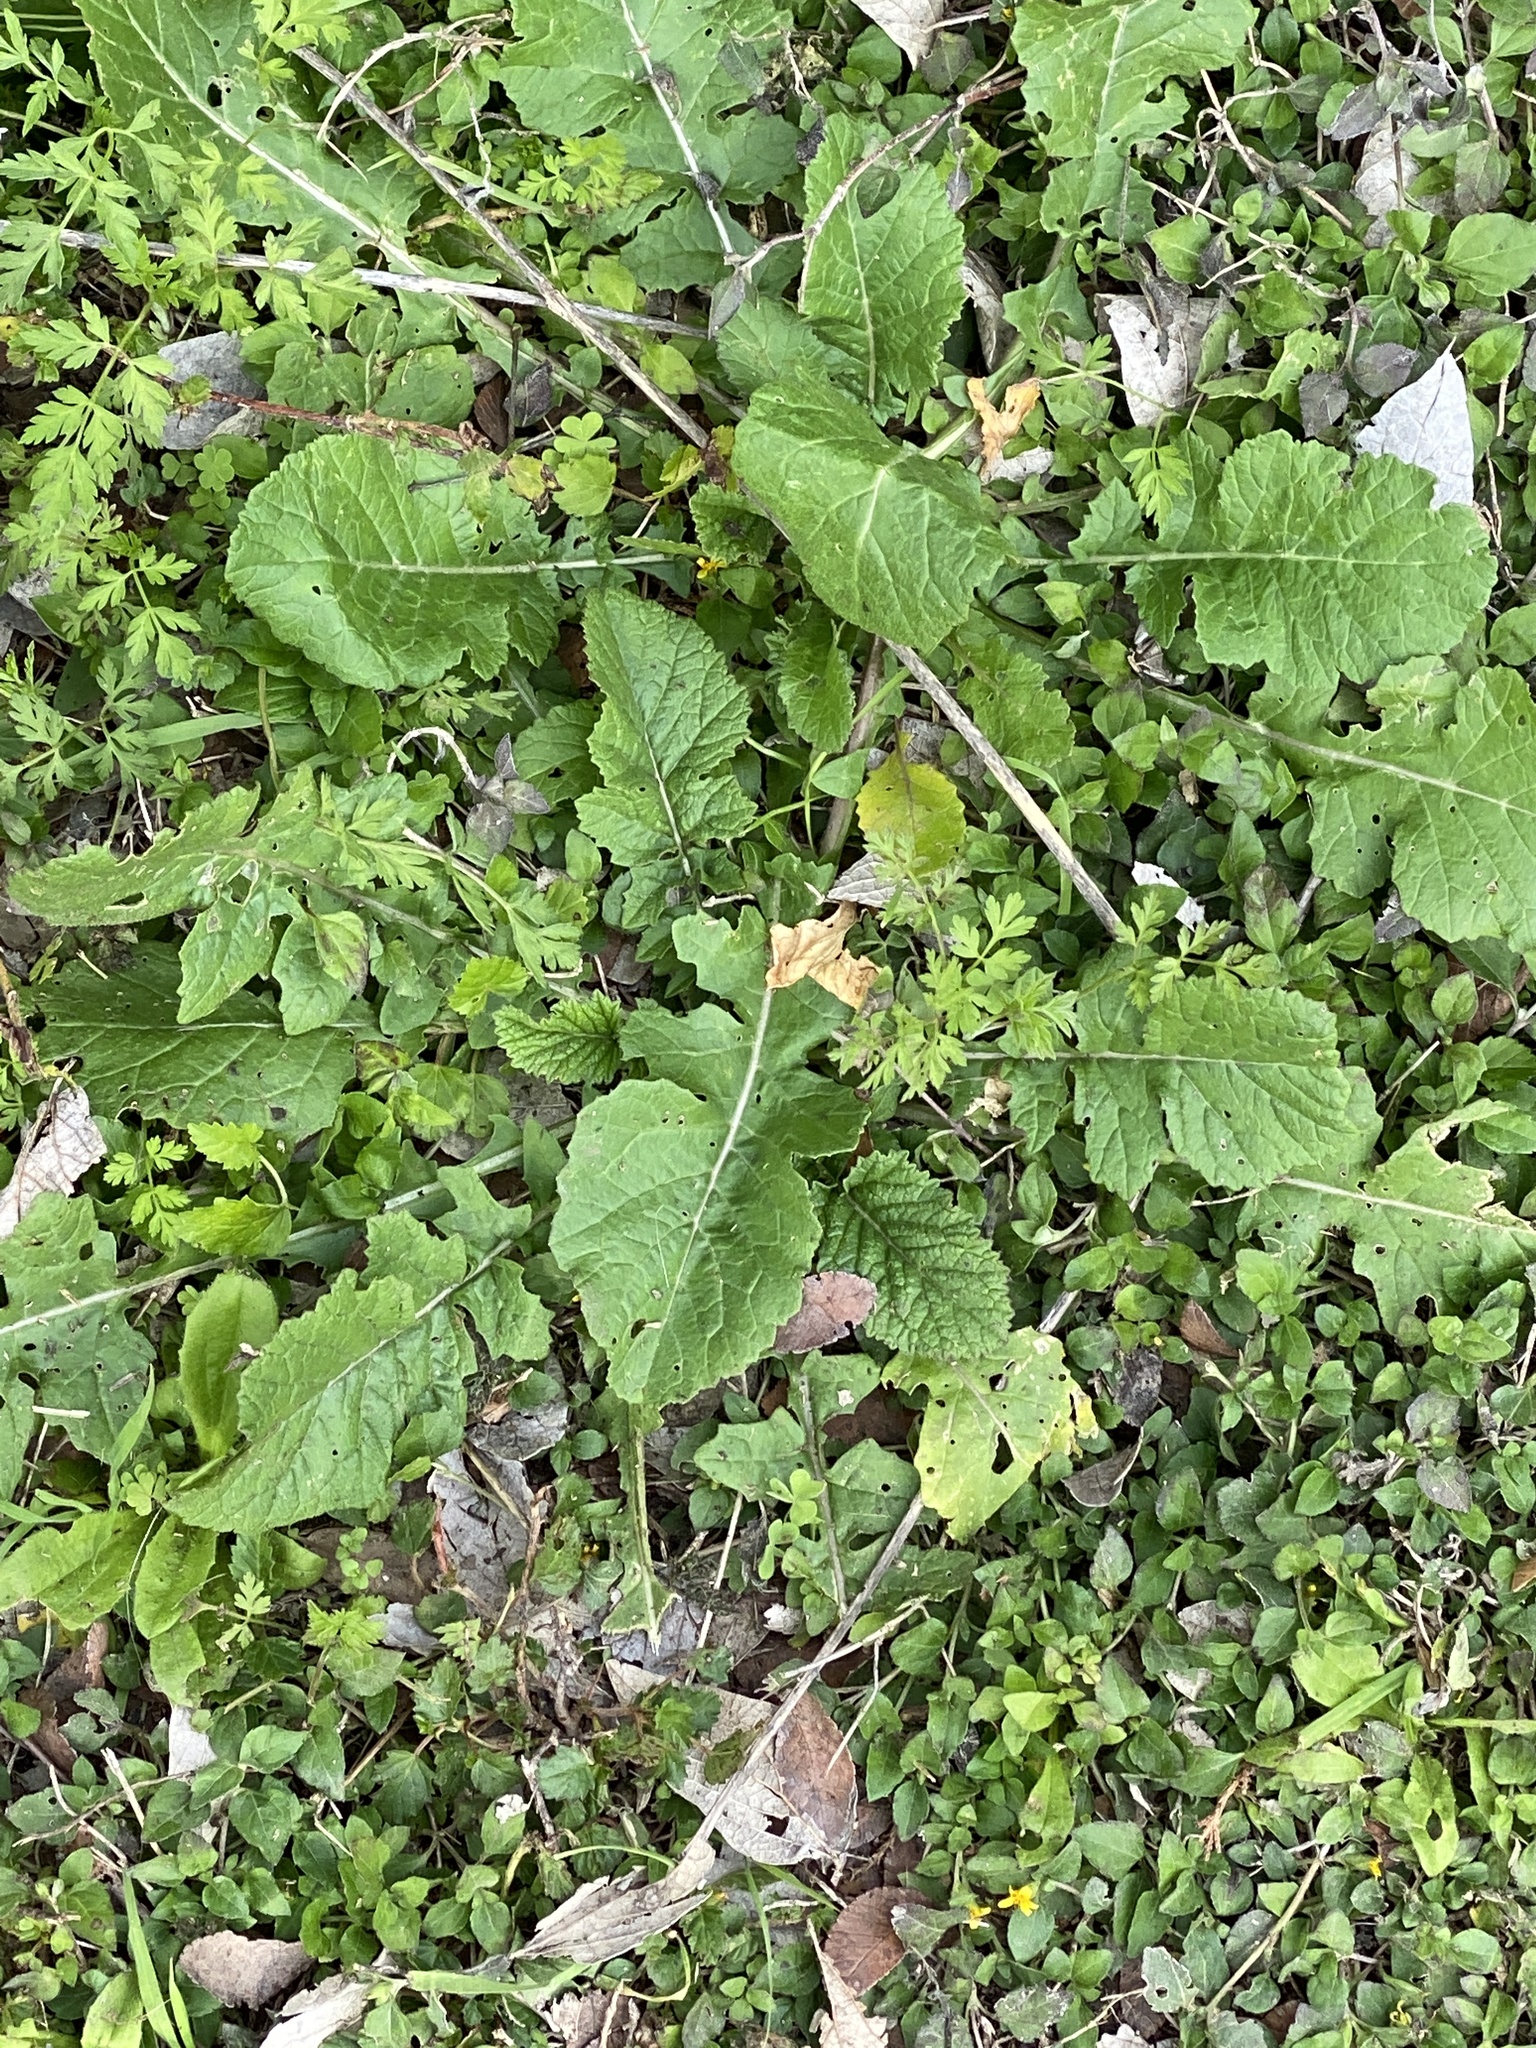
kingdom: Plantae
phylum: Tracheophyta
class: Magnoliopsida
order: Brassicales
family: Brassicaceae
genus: Rapistrum
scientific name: Rapistrum rugosum
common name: Annual bastardcabbage
